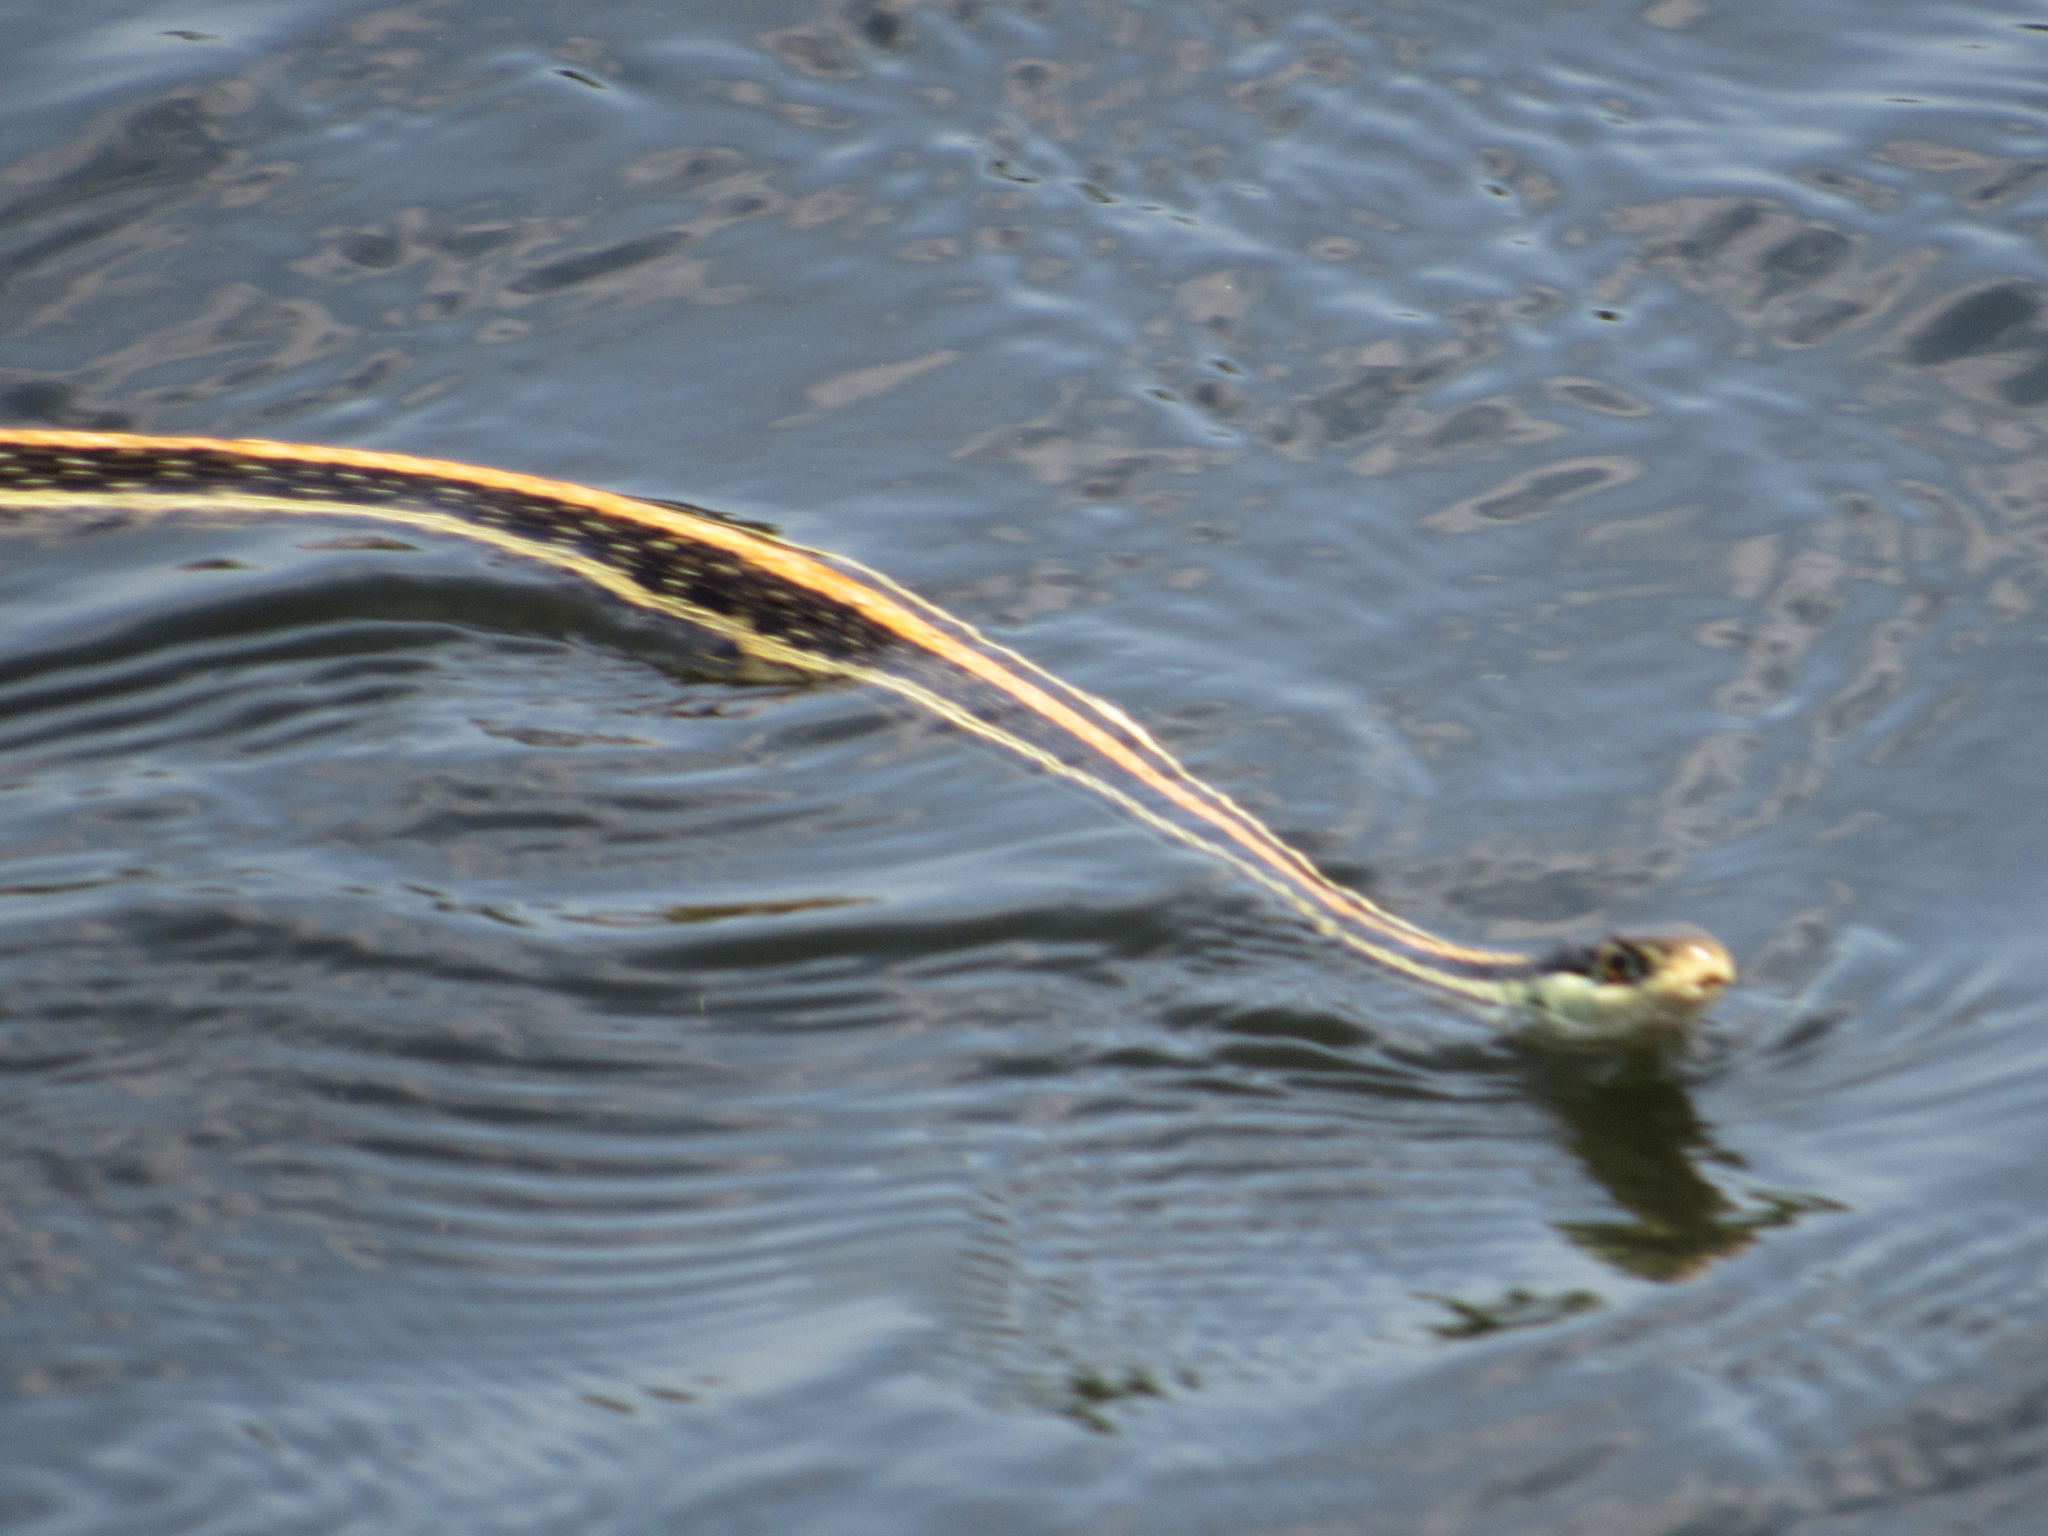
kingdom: Animalia
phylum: Chordata
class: Squamata
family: Colubridae
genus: Thamnophis
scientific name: Thamnophis proximus
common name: Western ribbon snake
